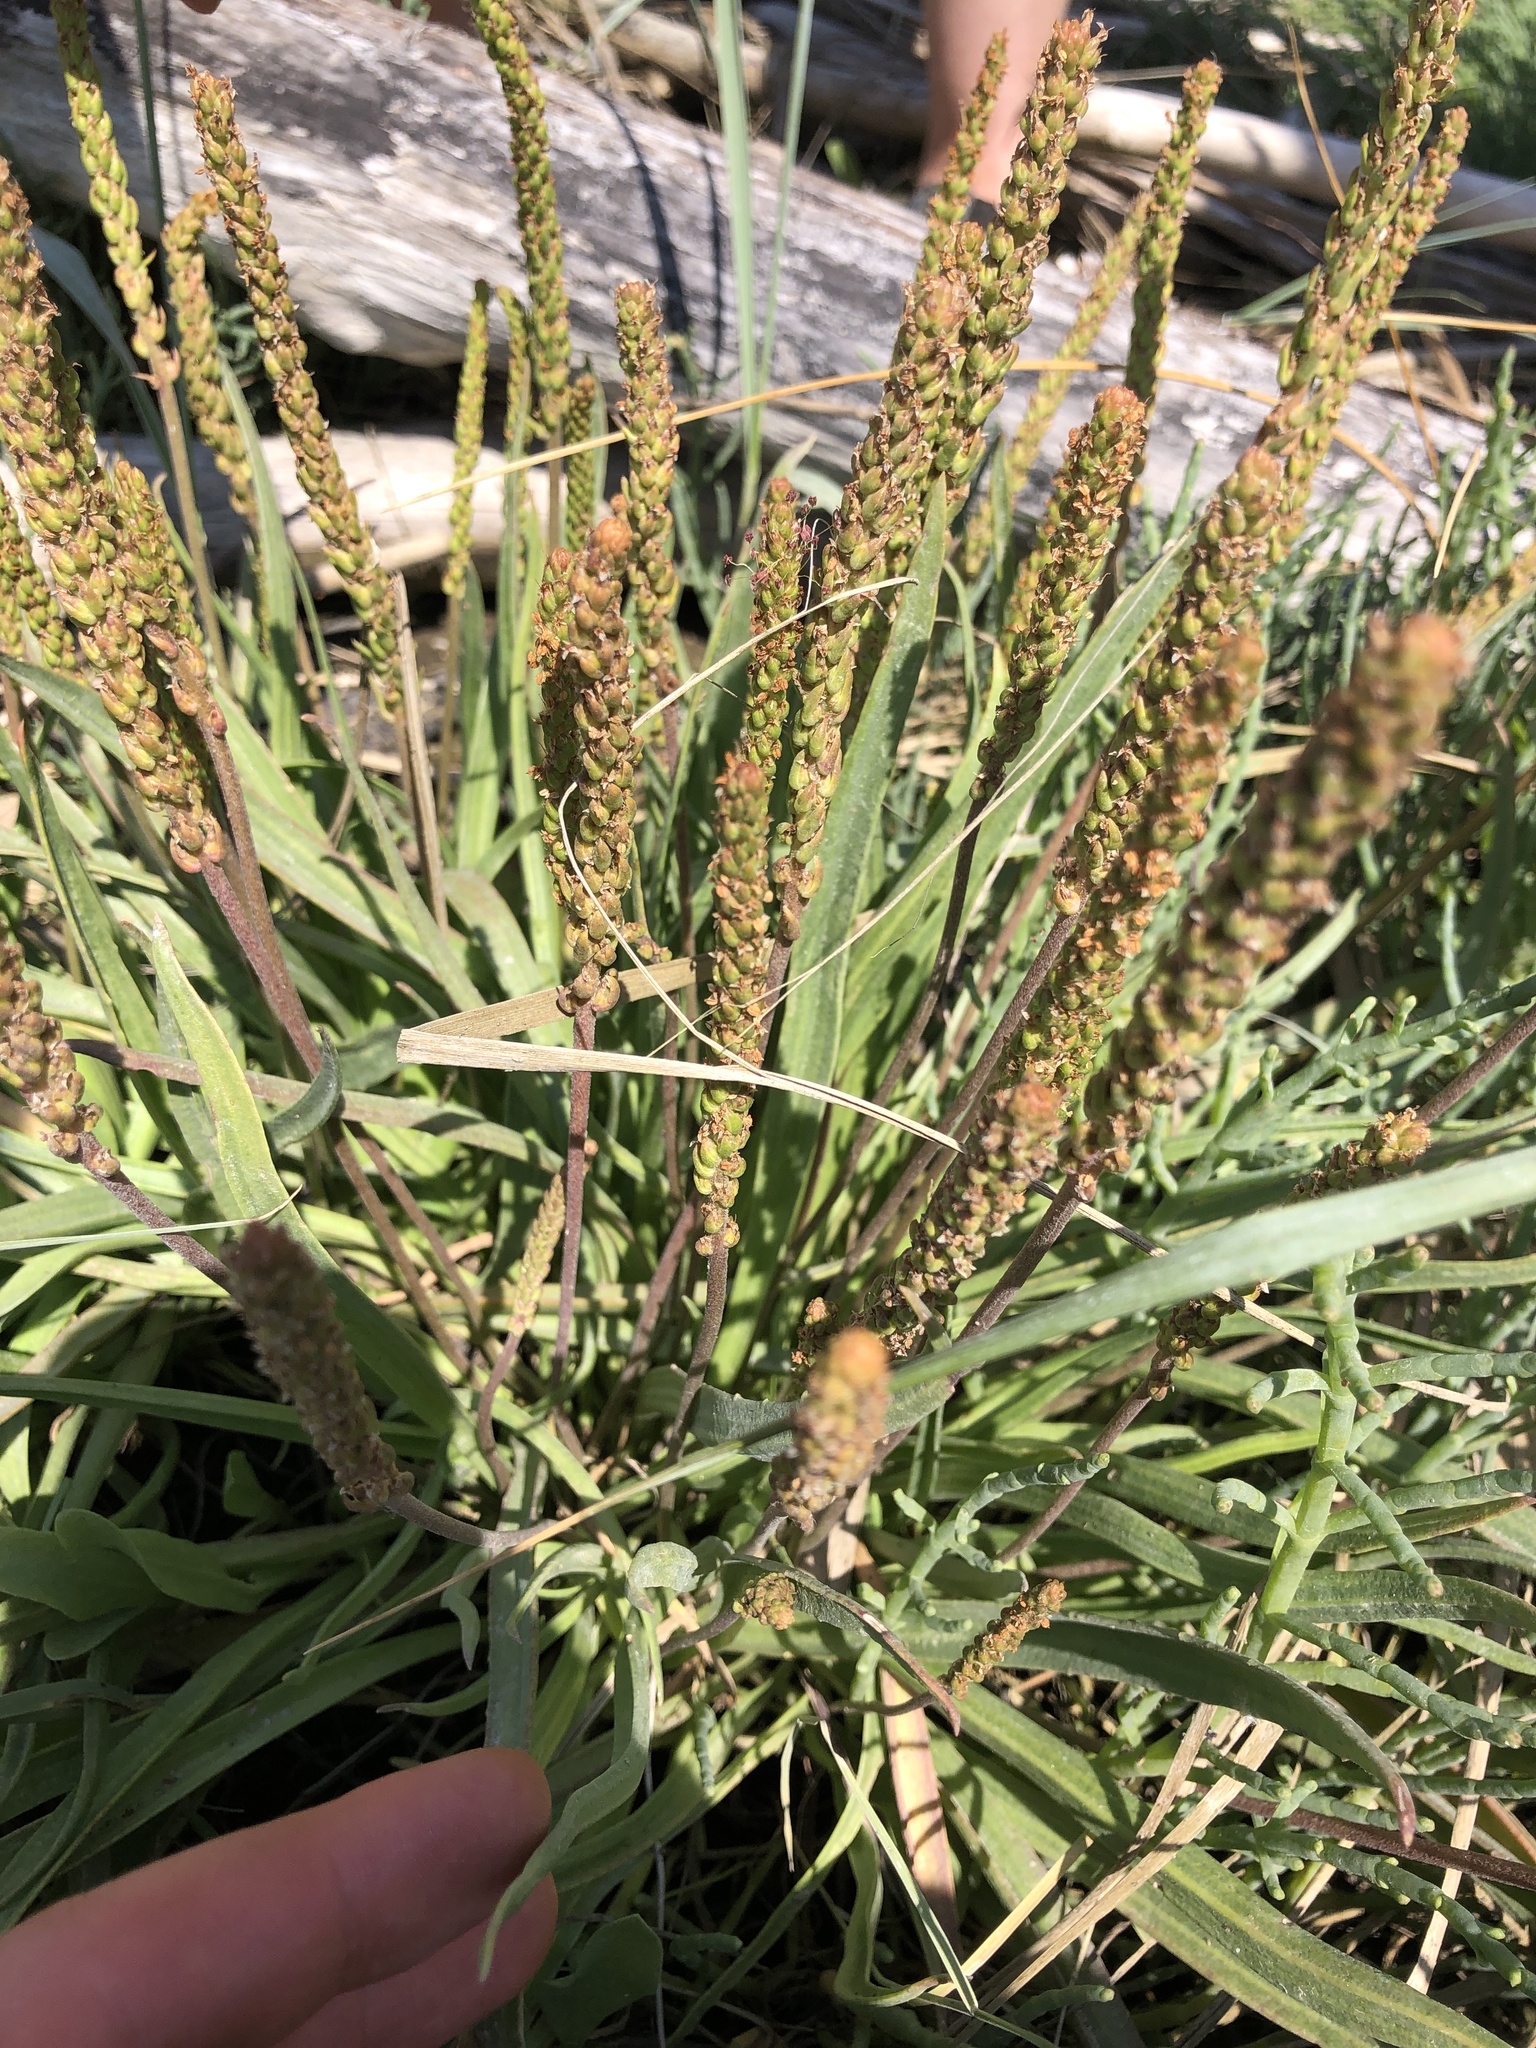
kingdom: Plantae
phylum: Tracheophyta
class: Magnoliopsida
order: Lamiales
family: Plantaginaceae
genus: Plantago
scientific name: Plantago maritima
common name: Sea plantain
